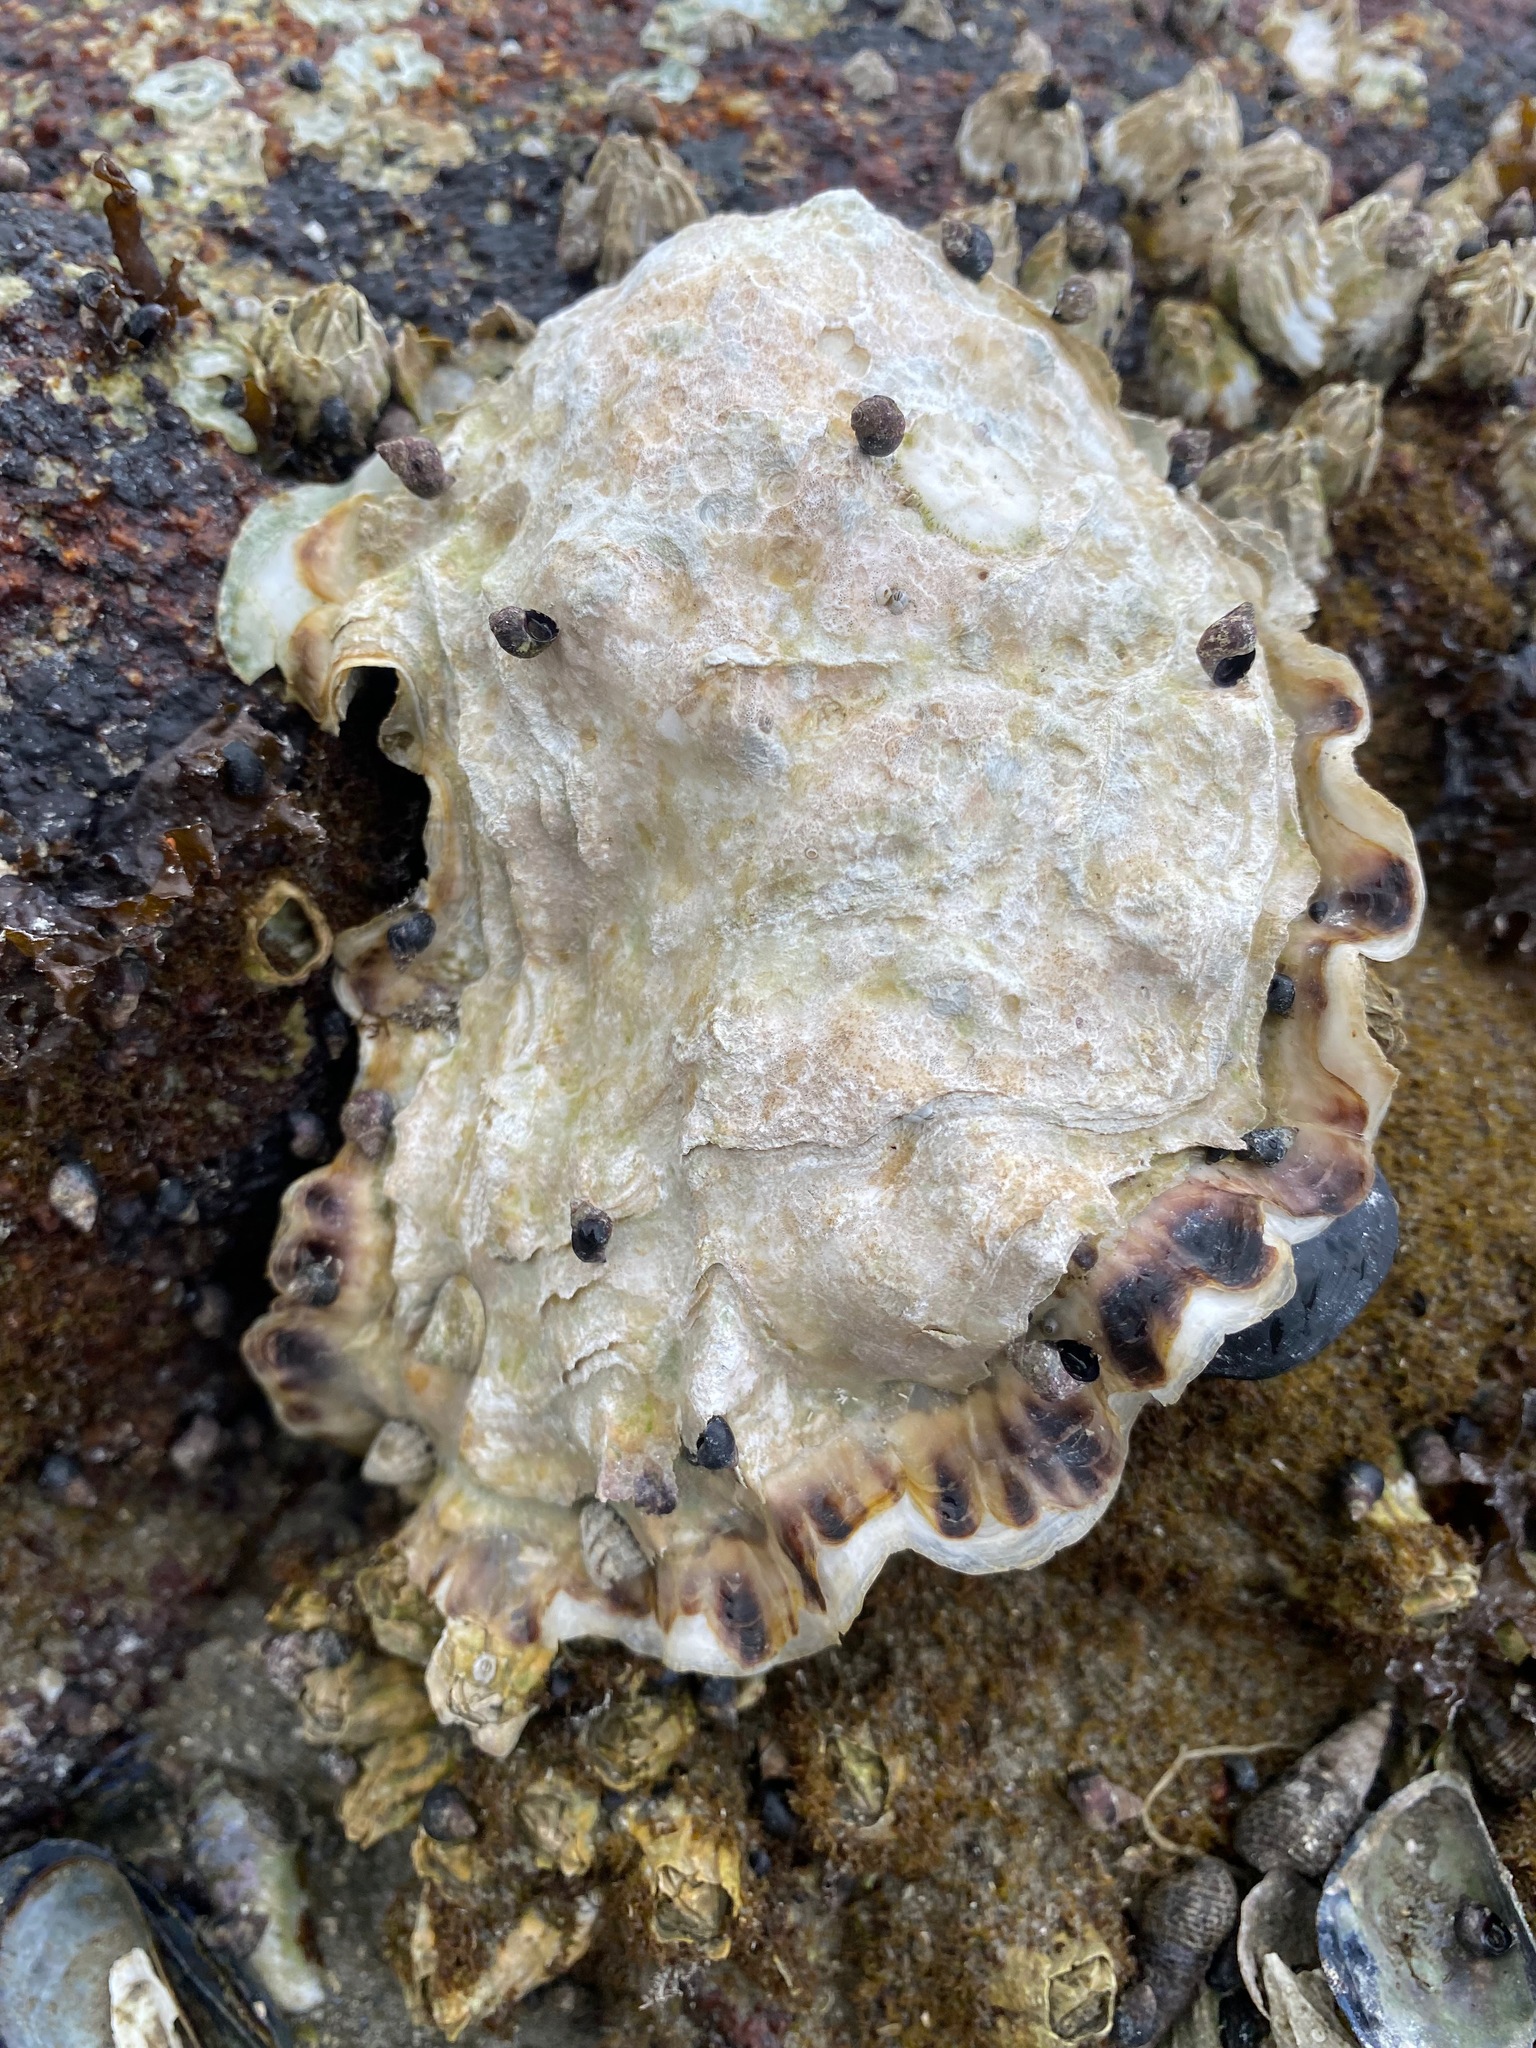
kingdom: Animalia
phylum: Mollusca
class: Bivalvia
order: Ostreida
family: Ostreidae
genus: Magallana
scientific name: Magallana gigas
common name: Pacific oyster
